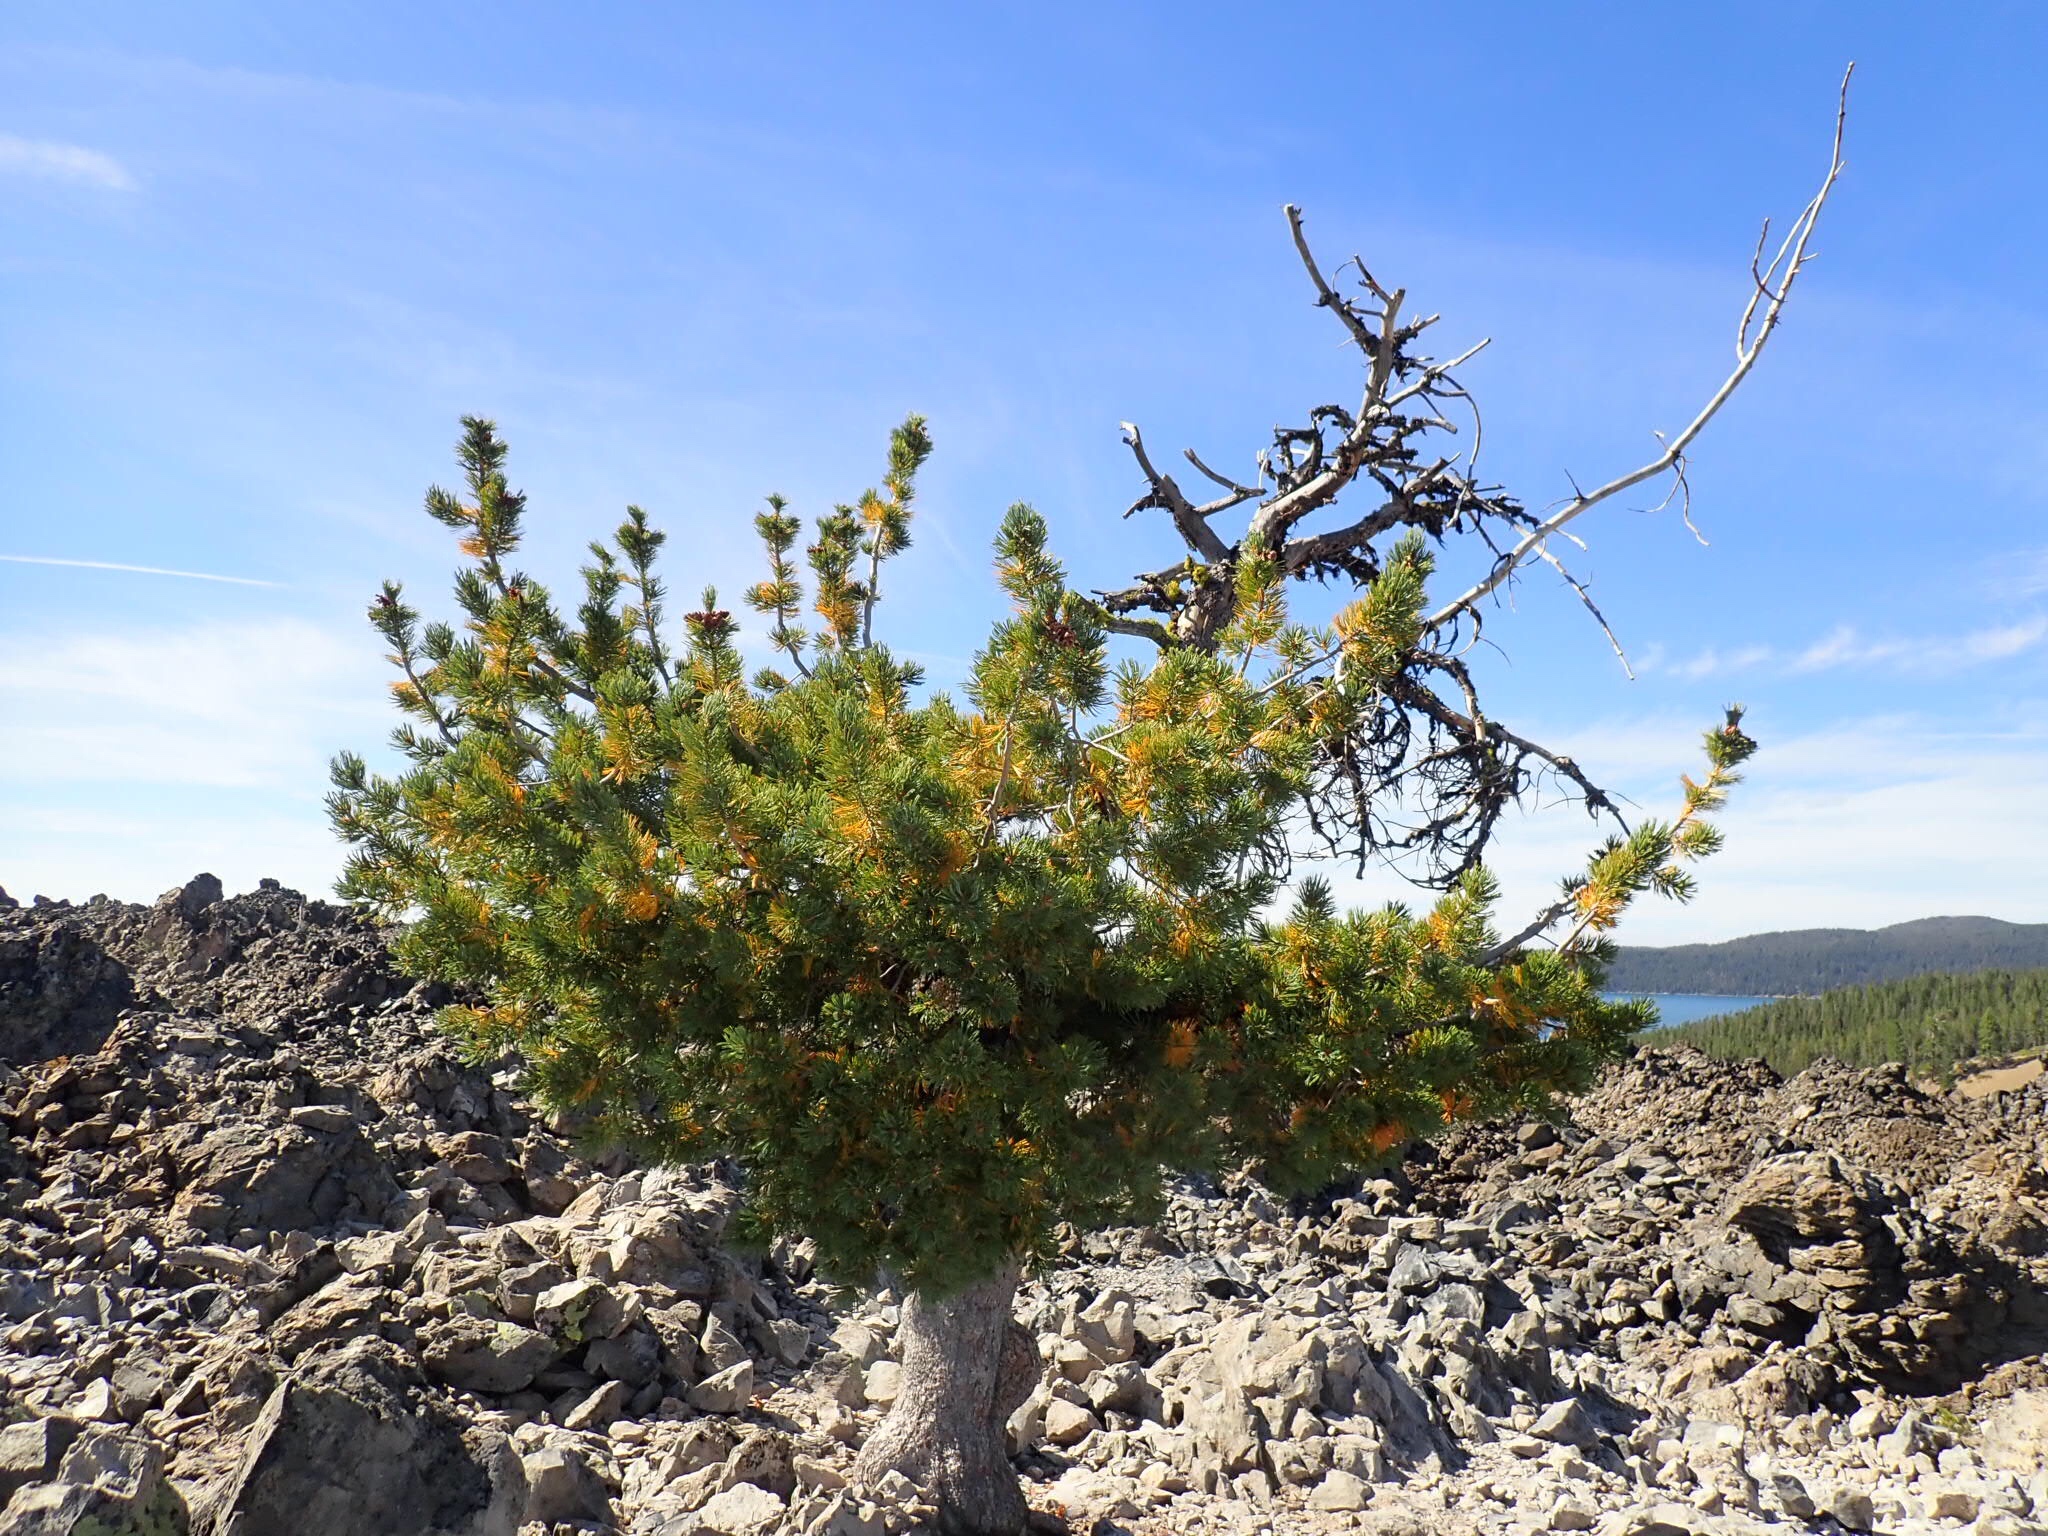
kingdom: Plantae
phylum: Tracheophyta
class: Pinopsida
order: Pinales
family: Pinaceae
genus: Pinus
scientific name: Pinus albicaulis
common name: Whitebark pine
